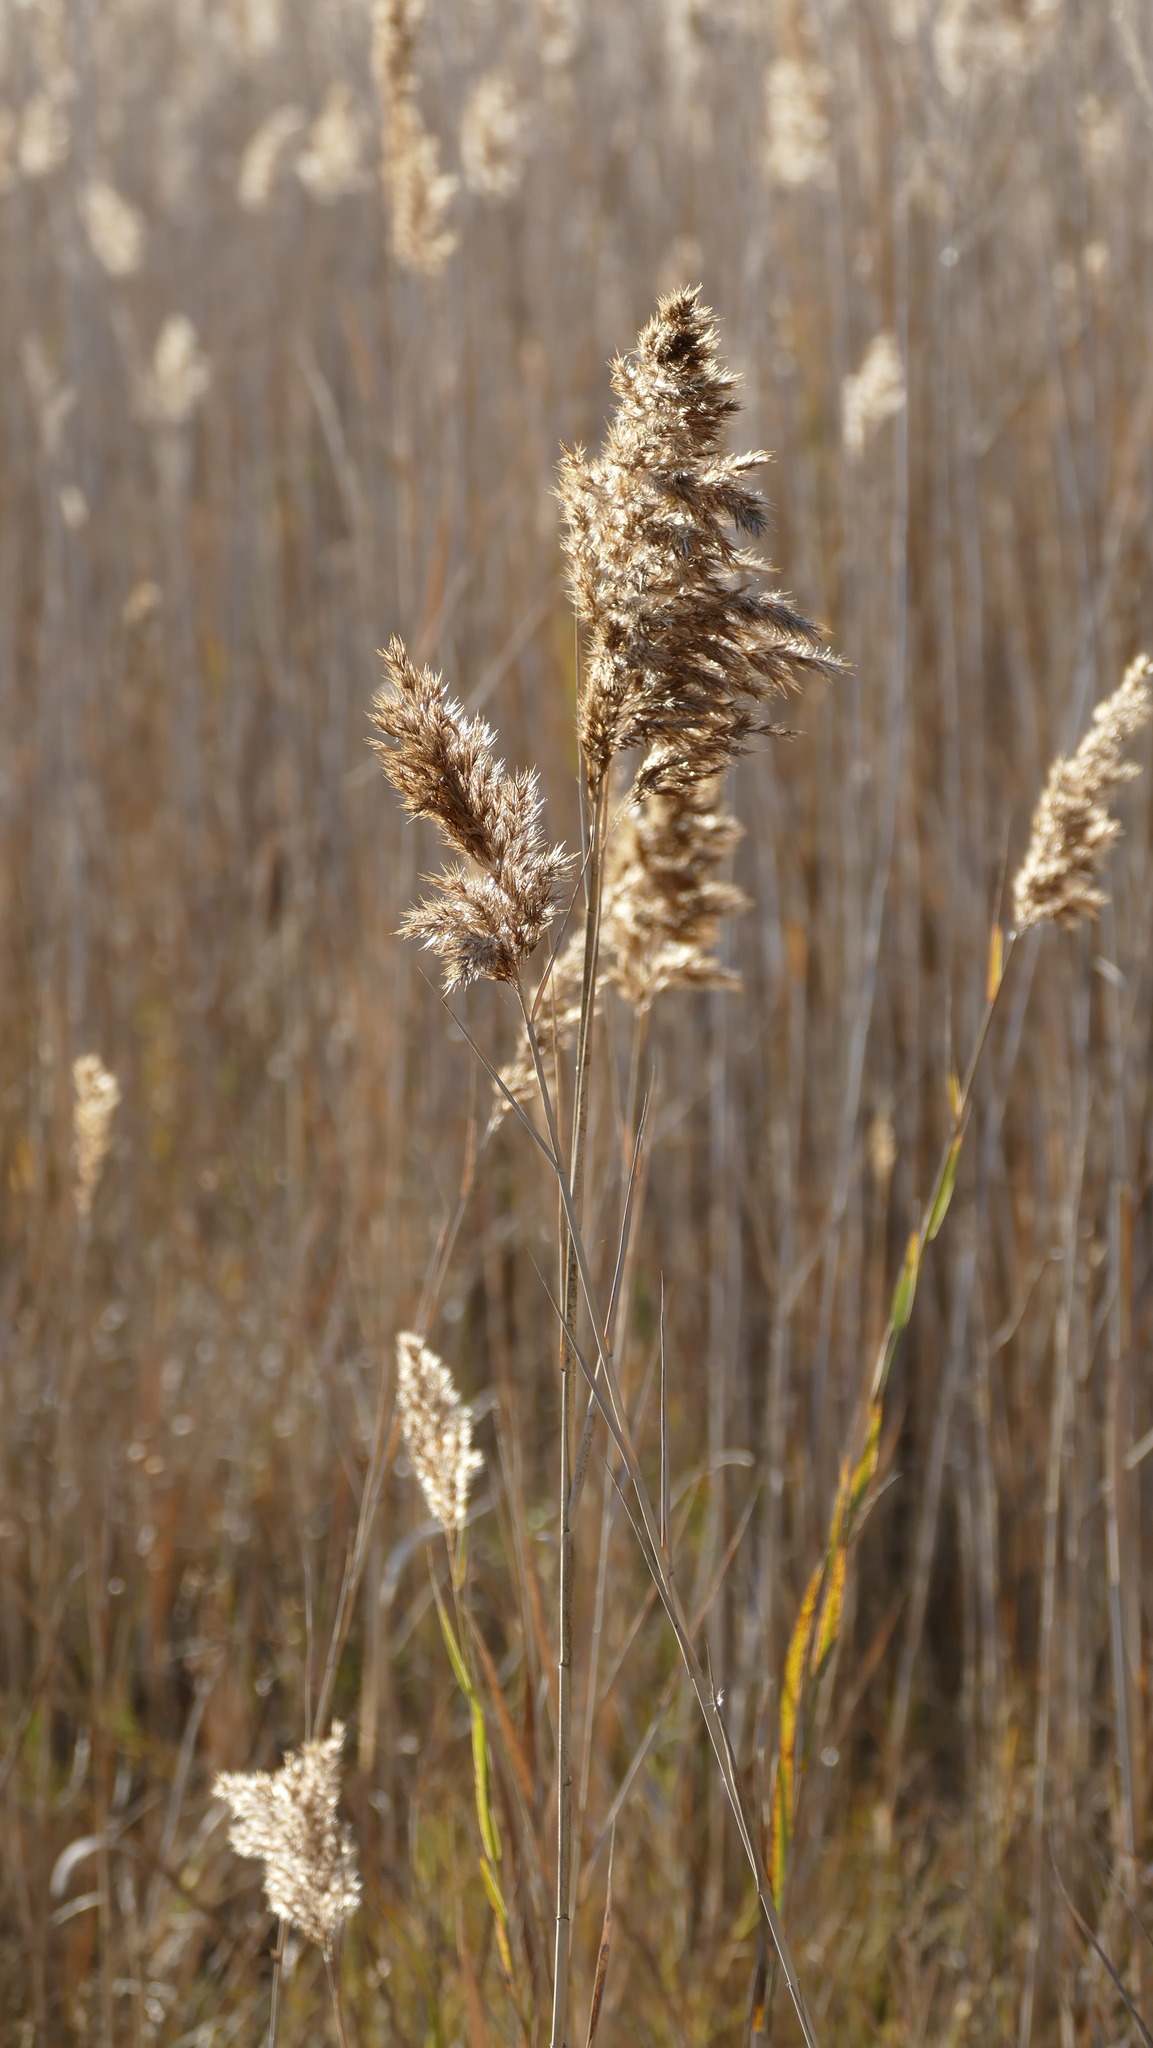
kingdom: Plantae
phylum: Tracheophyta
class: Liliopsida
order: Poales
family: Poaceae
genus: Phragmites
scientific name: Phragmites australis
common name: Common reed
